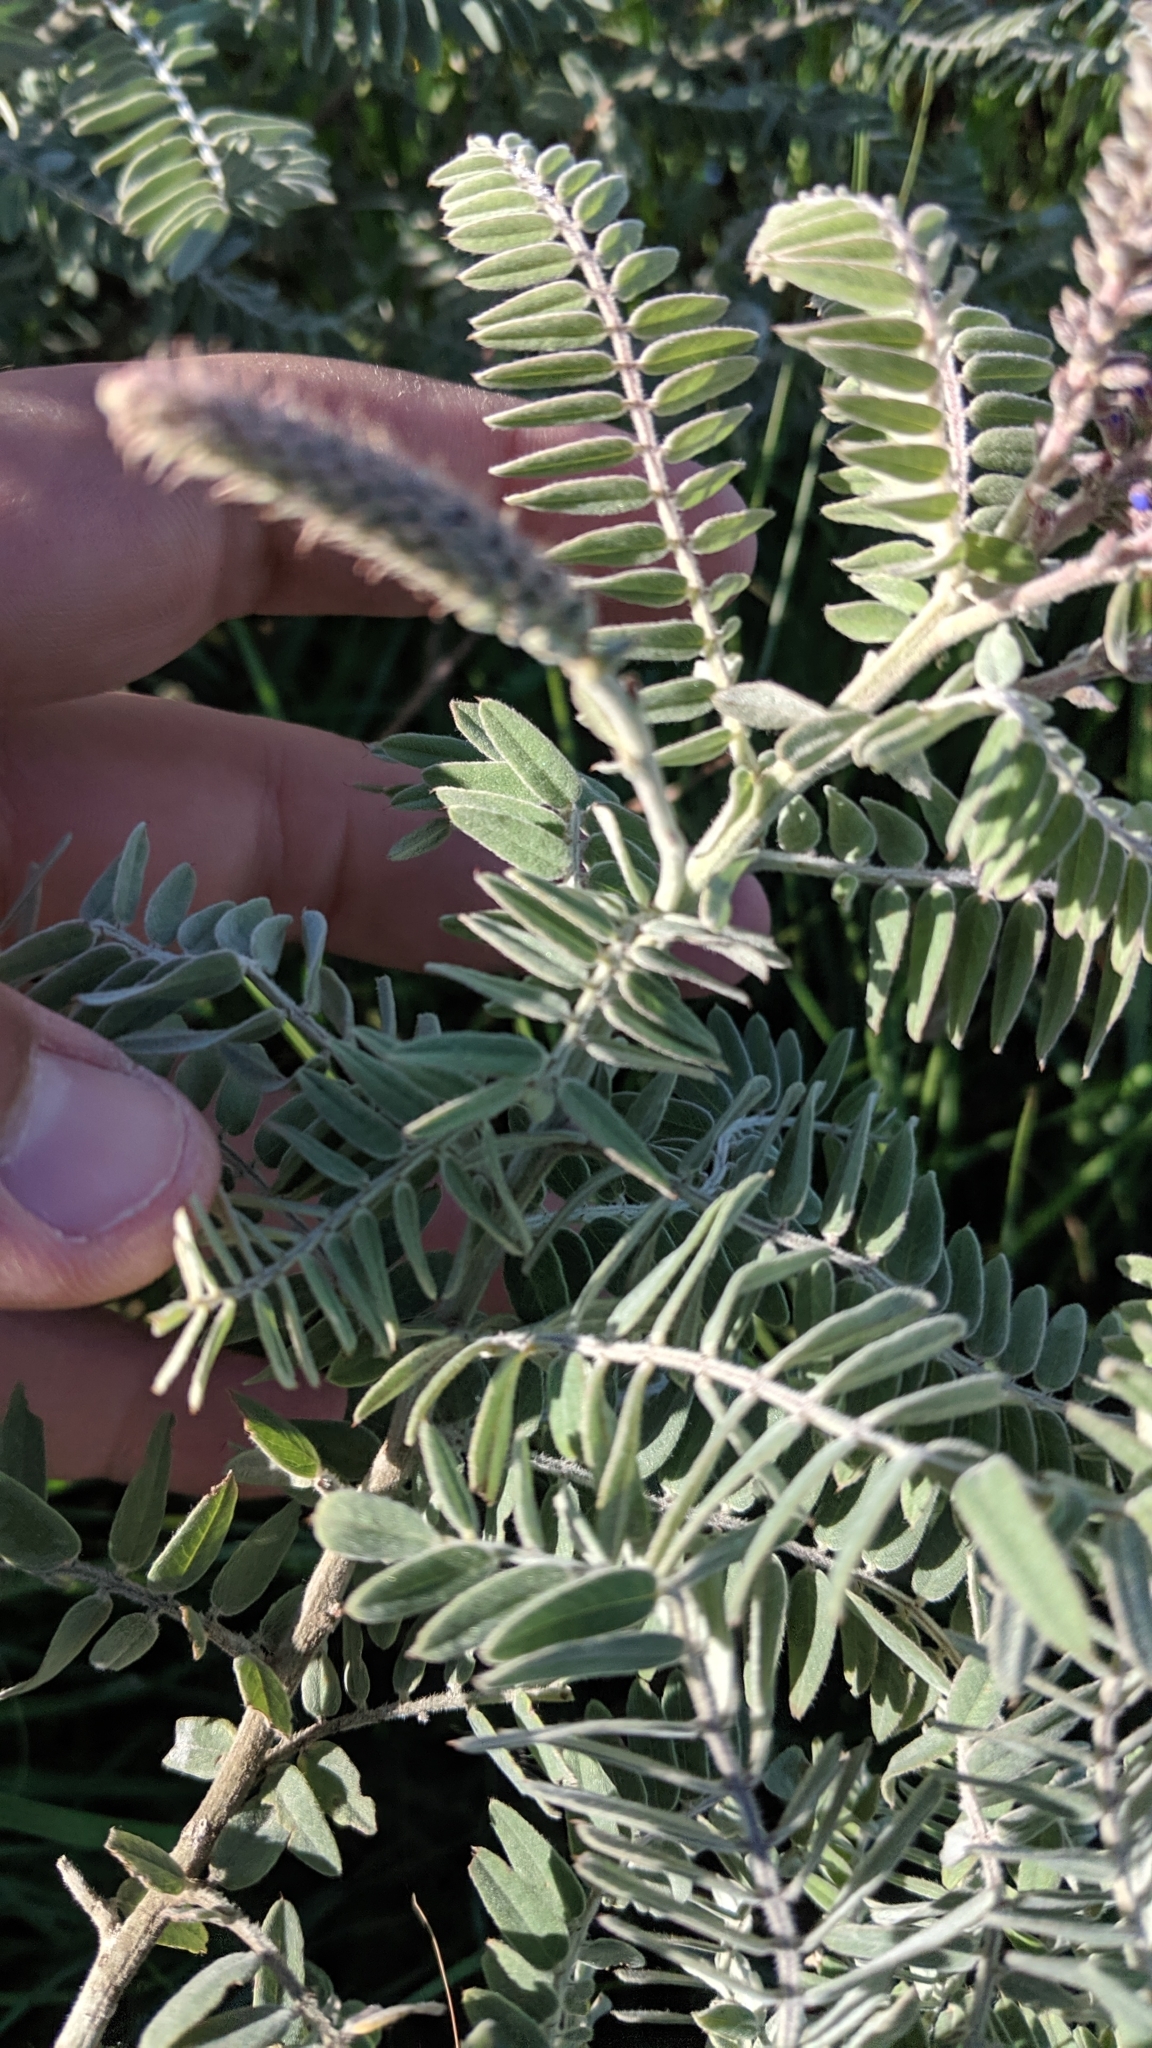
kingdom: Plantae
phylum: Tracheophyta
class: Magnoliopsida
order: Fabales
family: Fabaceae
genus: Amorpha
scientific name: Amorpha canescens
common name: Leadplant
